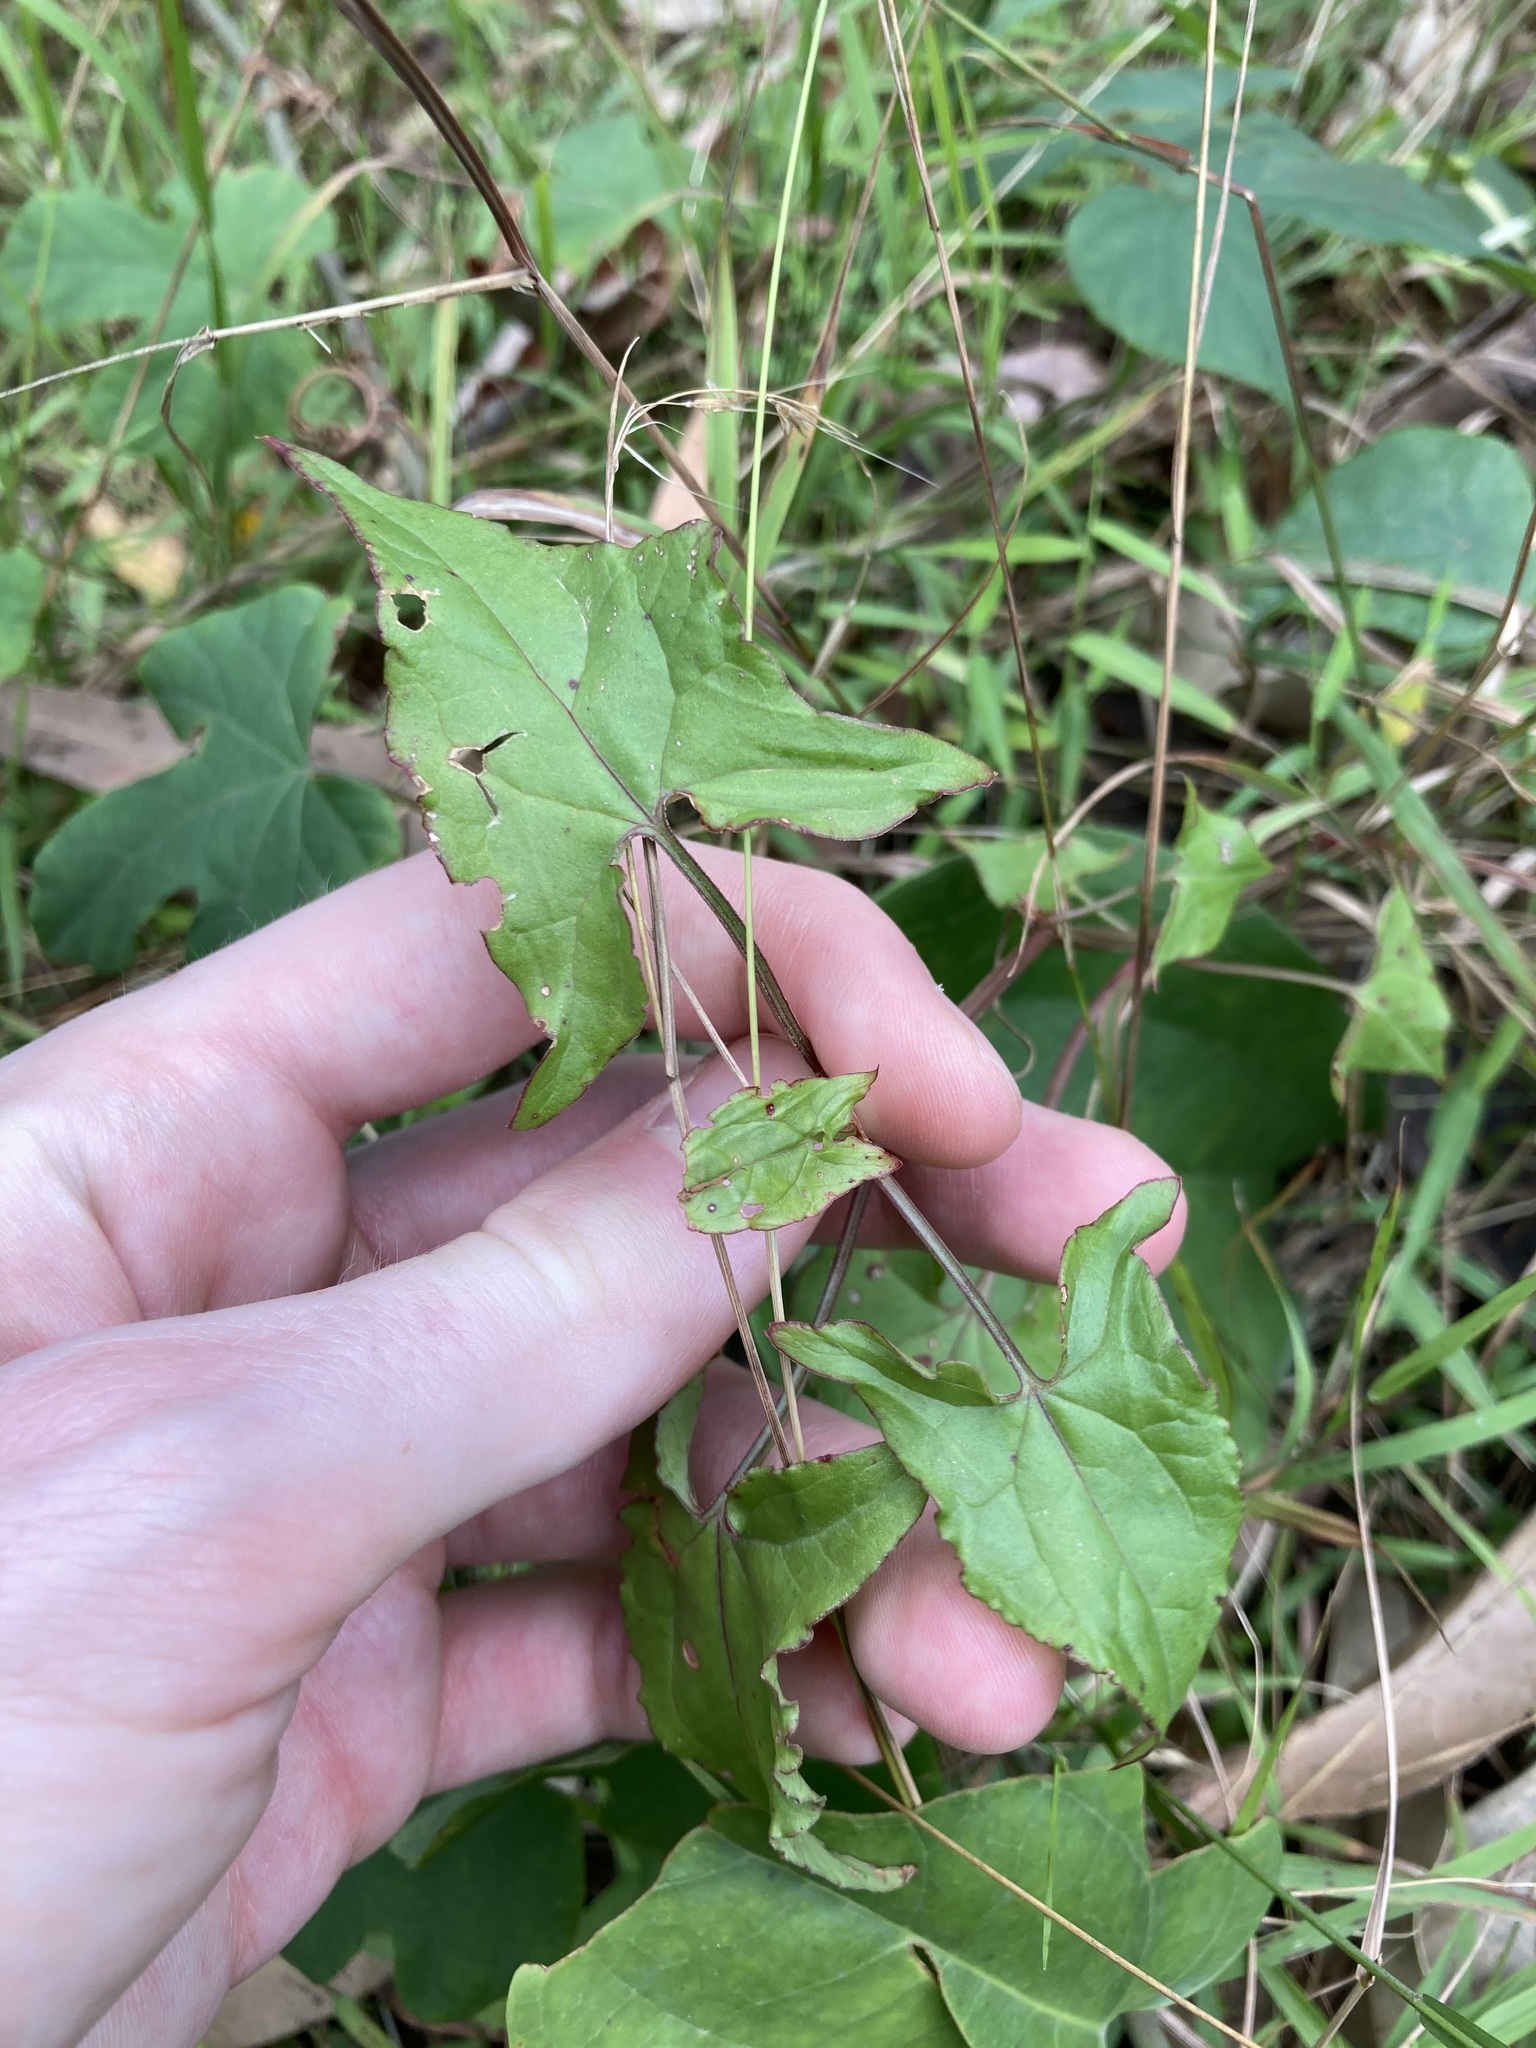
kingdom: Plantae
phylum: Tracheophyta
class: Magnoliopsida
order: Caryophyllales
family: Polygonaceae
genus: Rumex
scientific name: Rumex sagittatus
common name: Climbing dock
